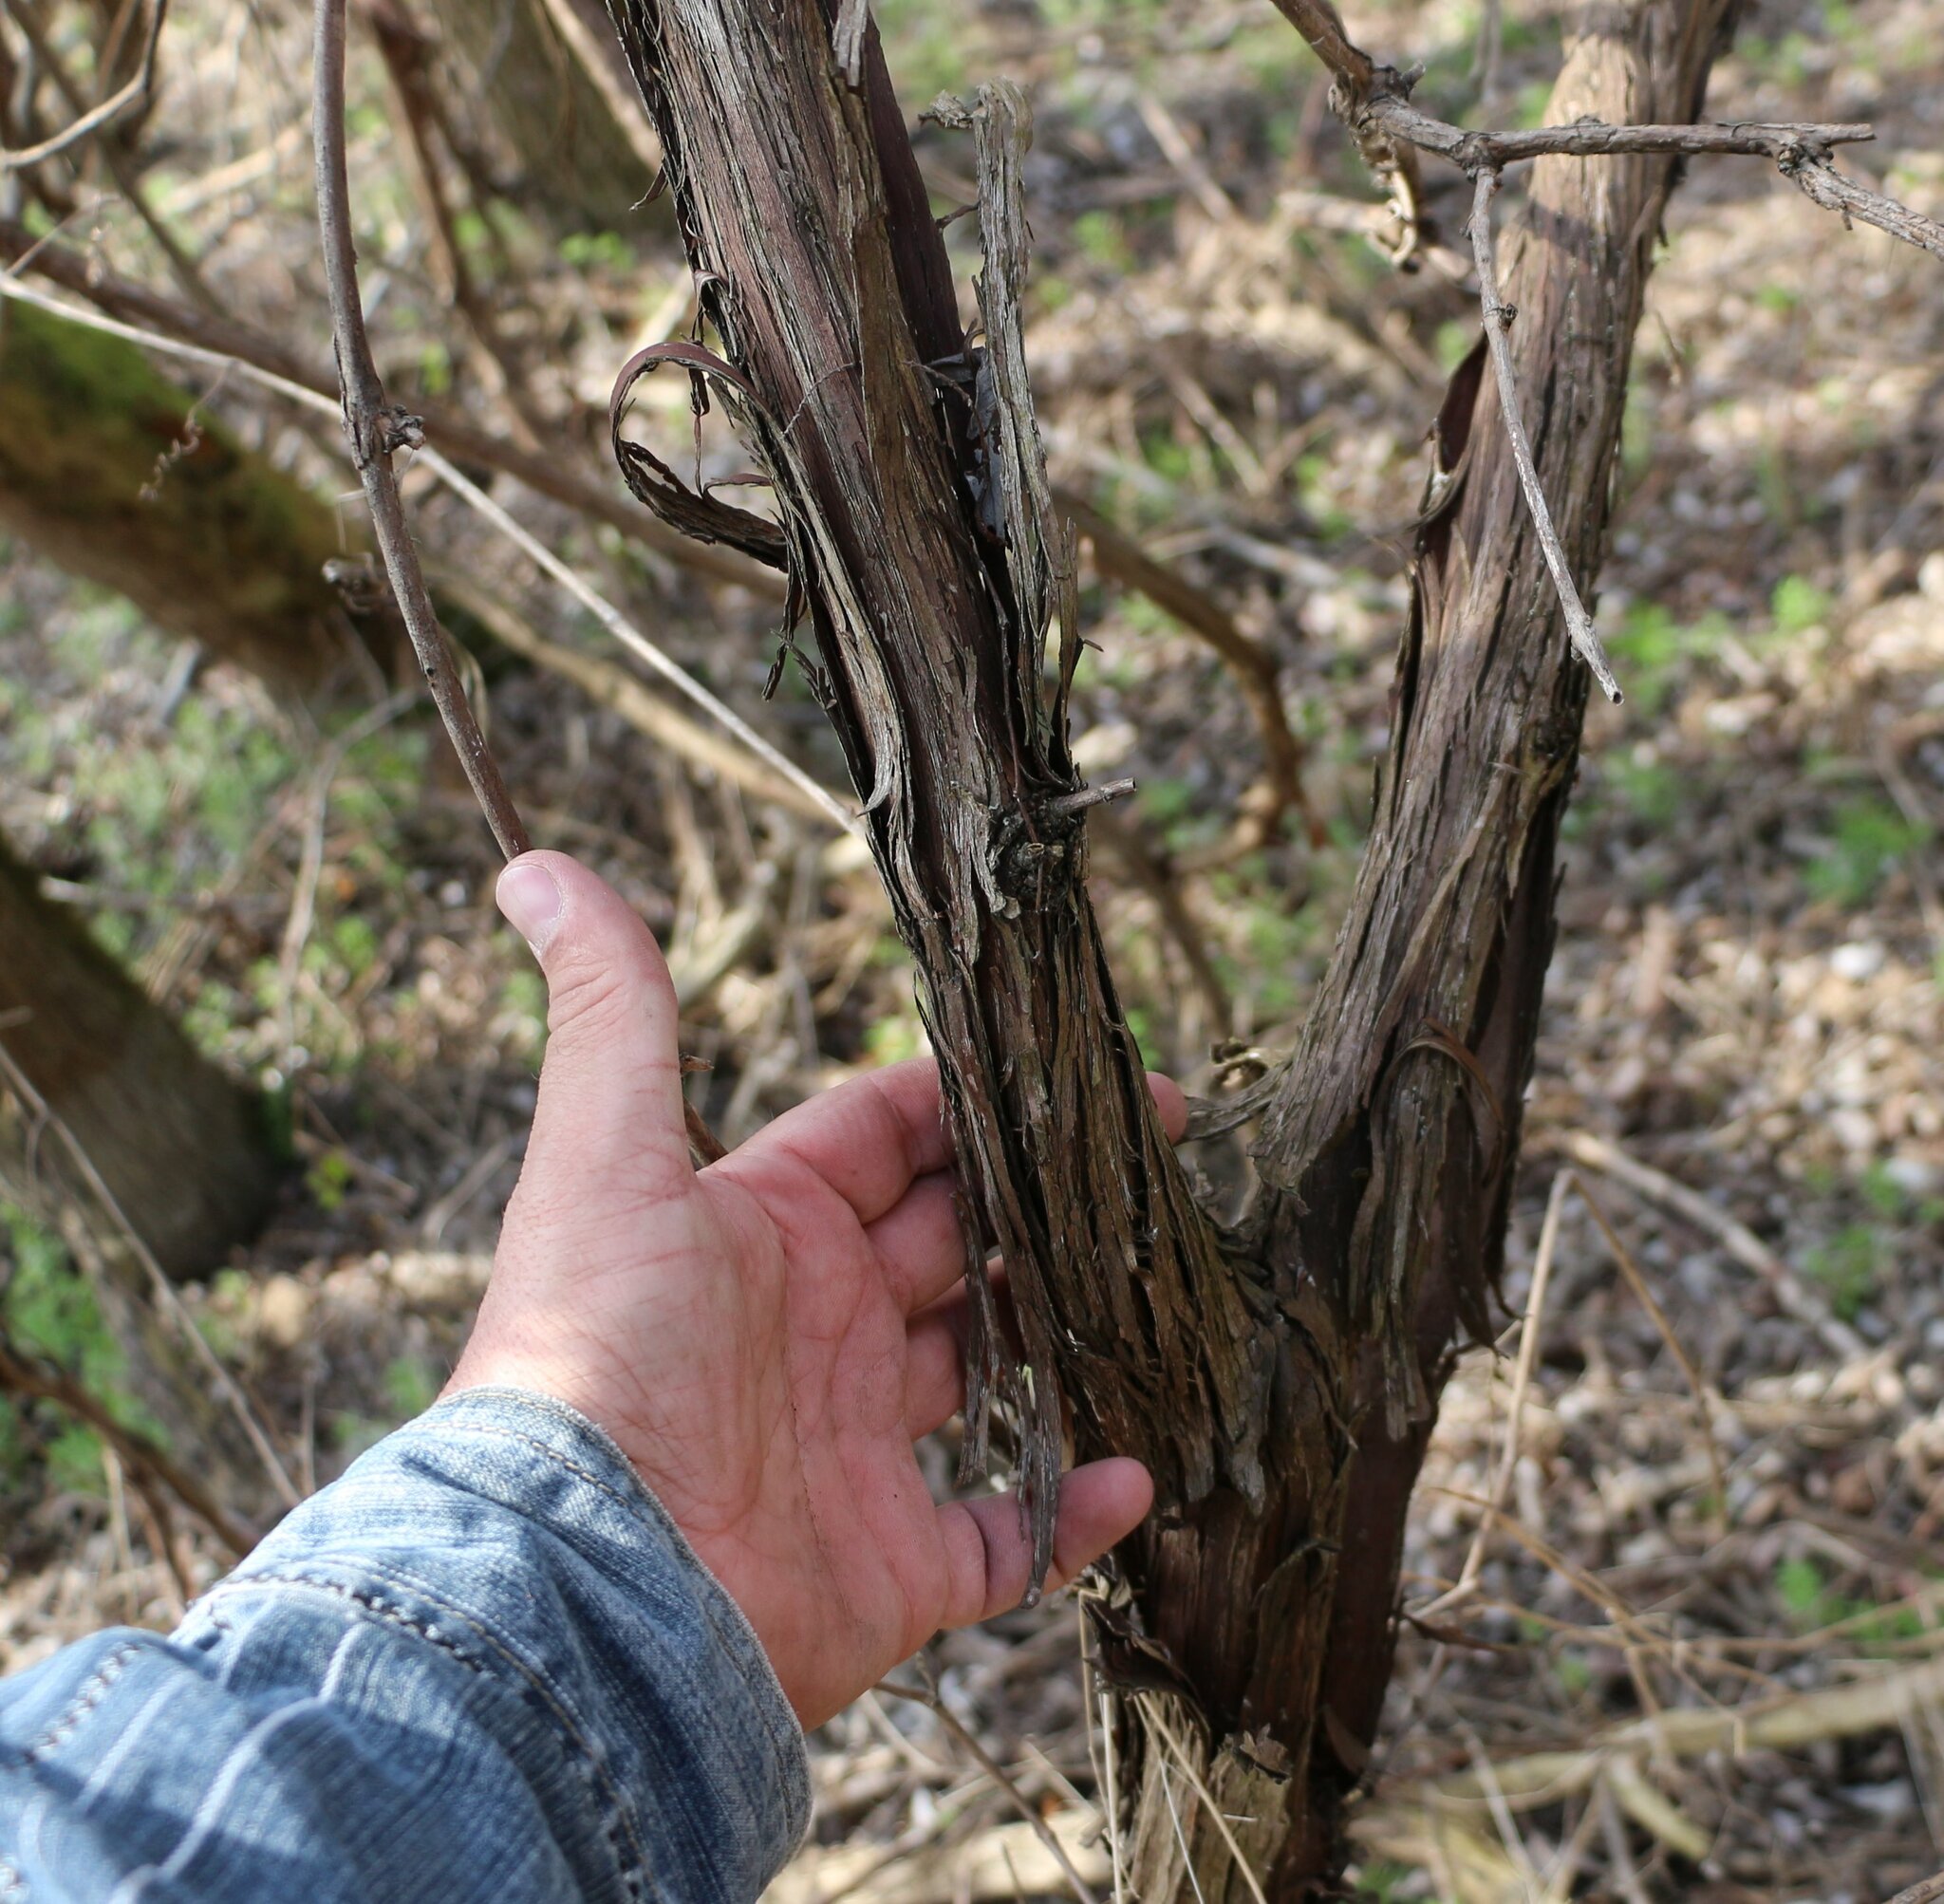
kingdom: Plantae
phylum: Tracheophyta
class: Magnoliopsida
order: Vitales
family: Vitaceae
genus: Vitis
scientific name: Vitis vinifera
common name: Grape-vine
